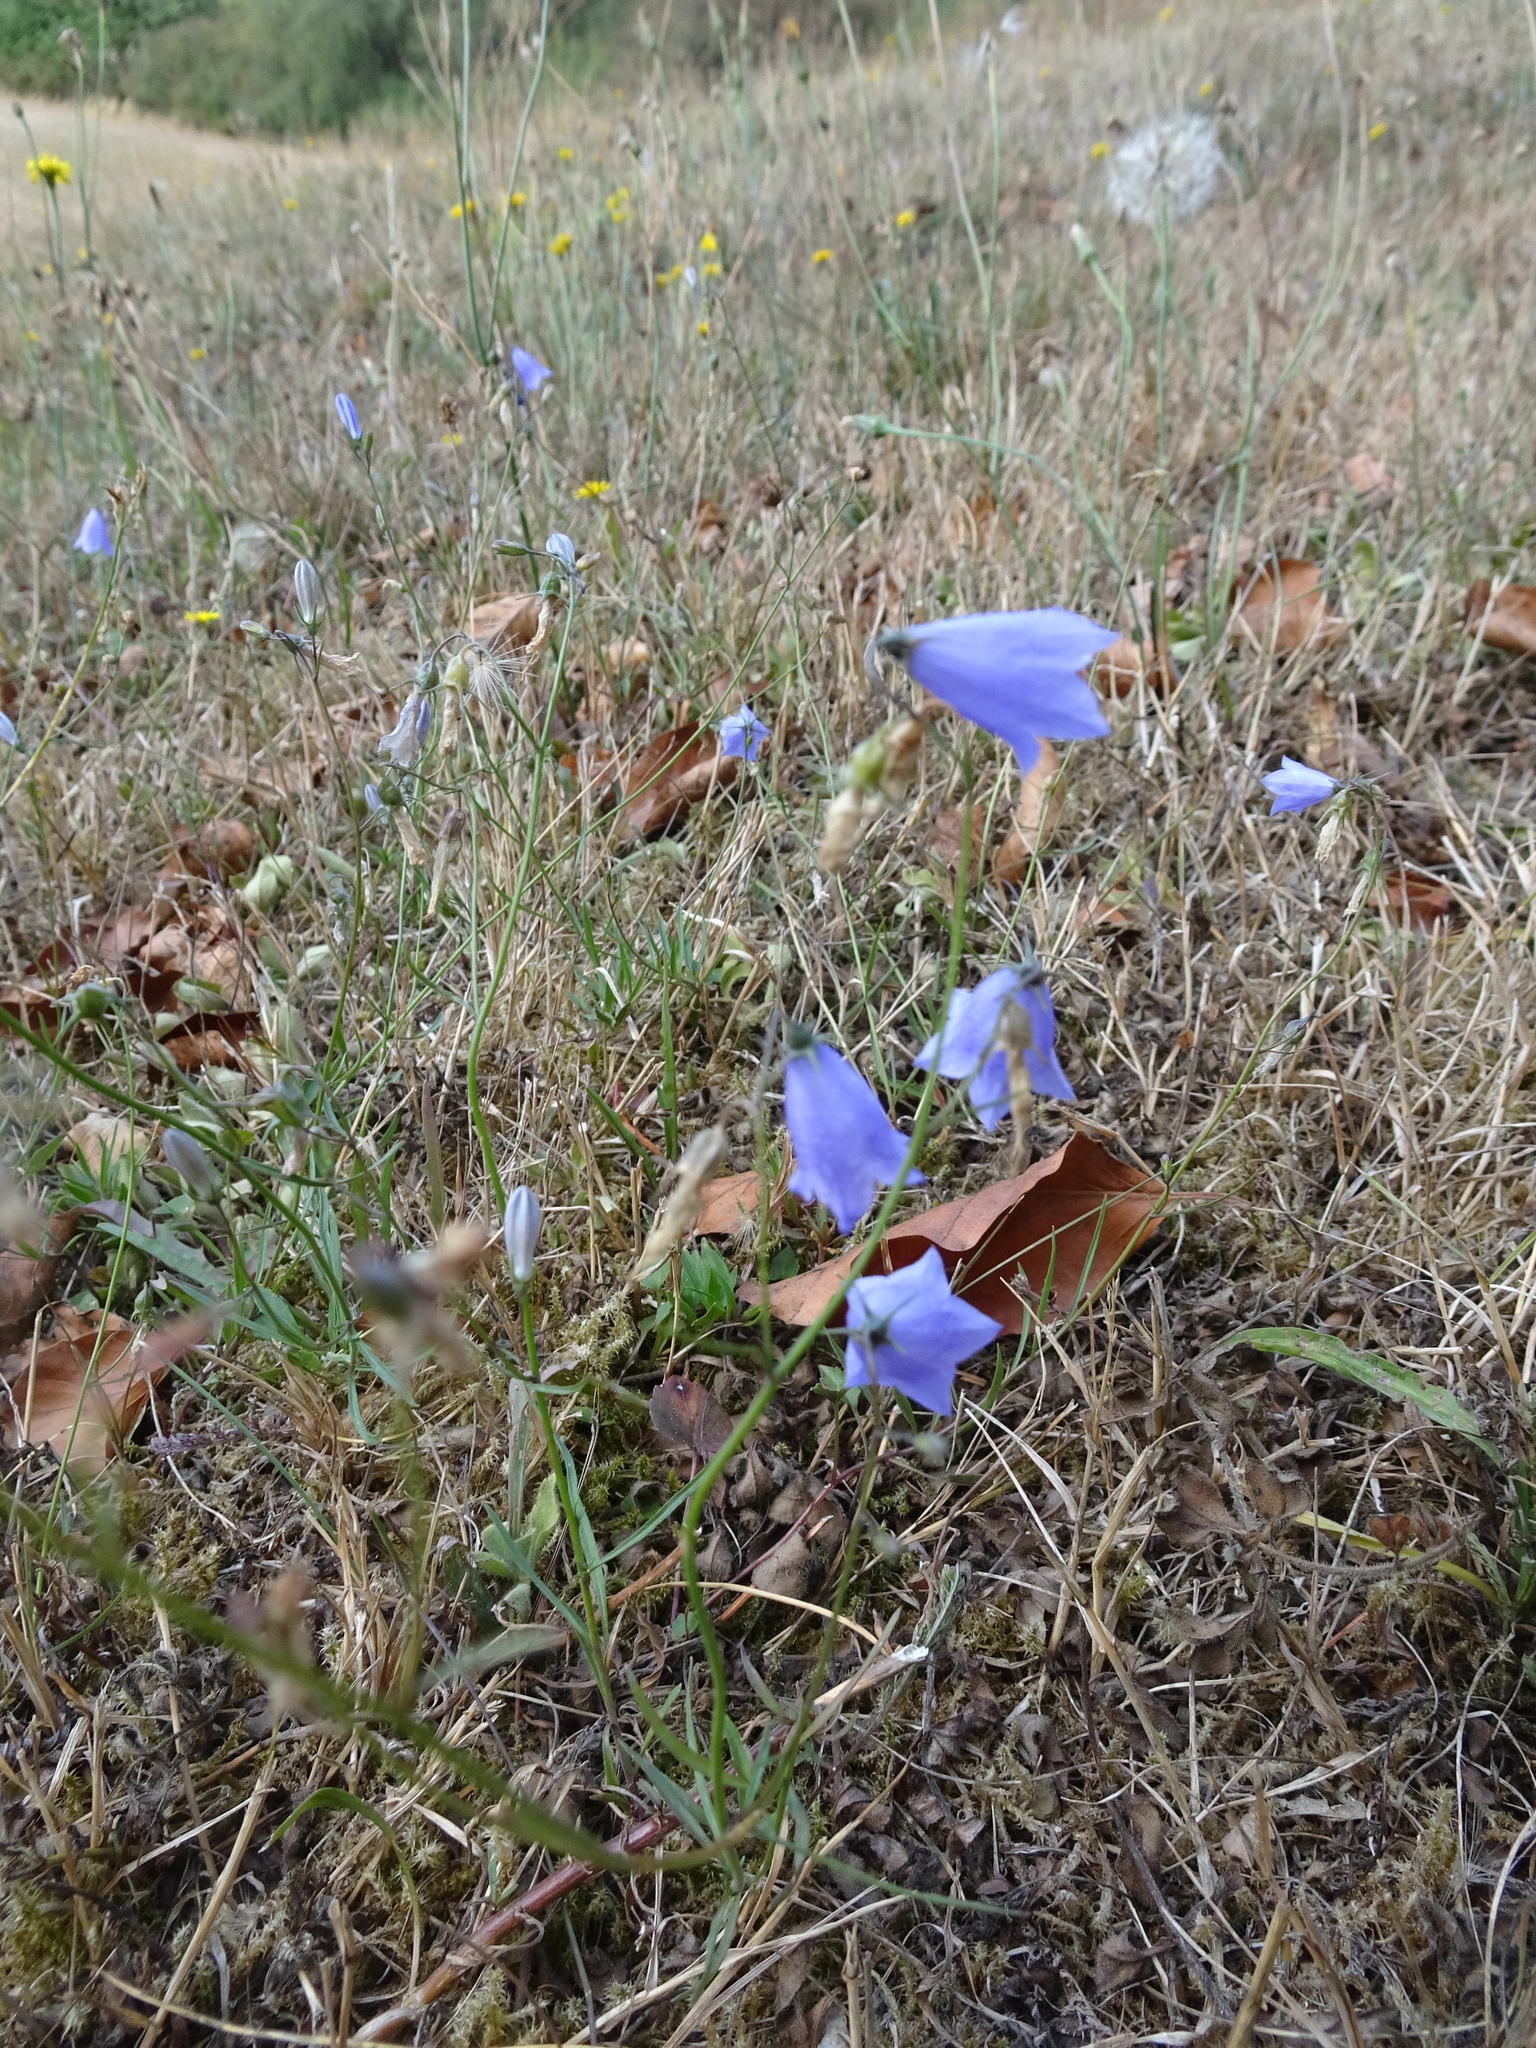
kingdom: Plantae
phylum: Tracheophyta
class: Magnoliopsida
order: Asterales
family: Campanulaceae
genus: Campanula
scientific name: Campanula rotundifolia
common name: Harebell
